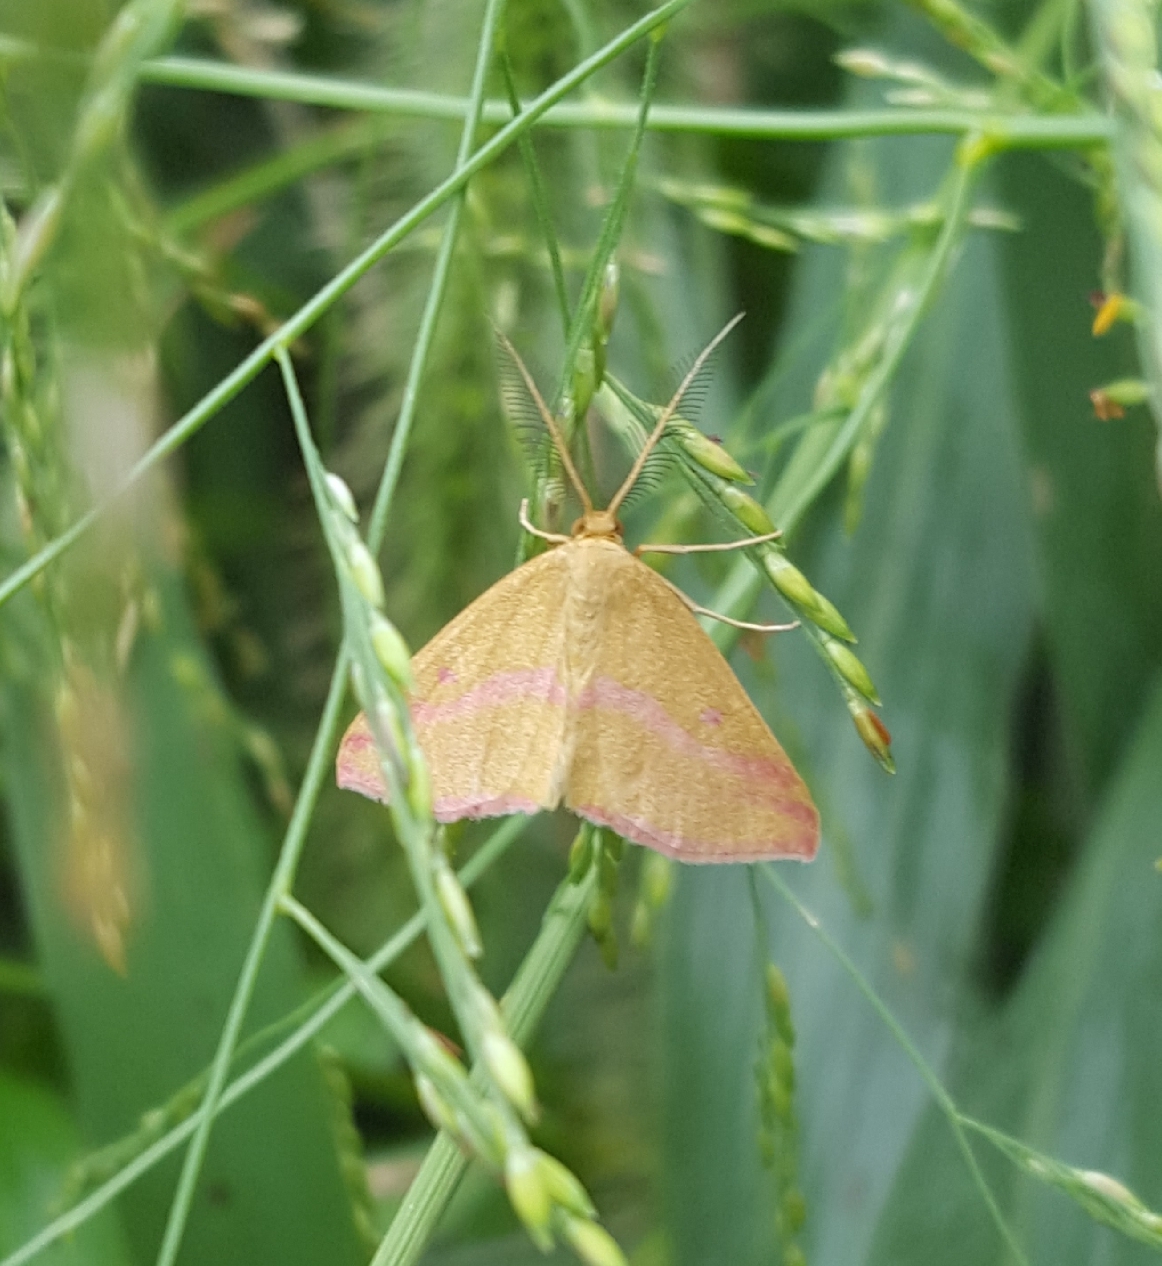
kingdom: Animalia
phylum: Arthropoda
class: Insecta
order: Lepidoptera
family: Geometridae
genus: Haematopis
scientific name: Haematopis grataria
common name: Chickweed geometer
